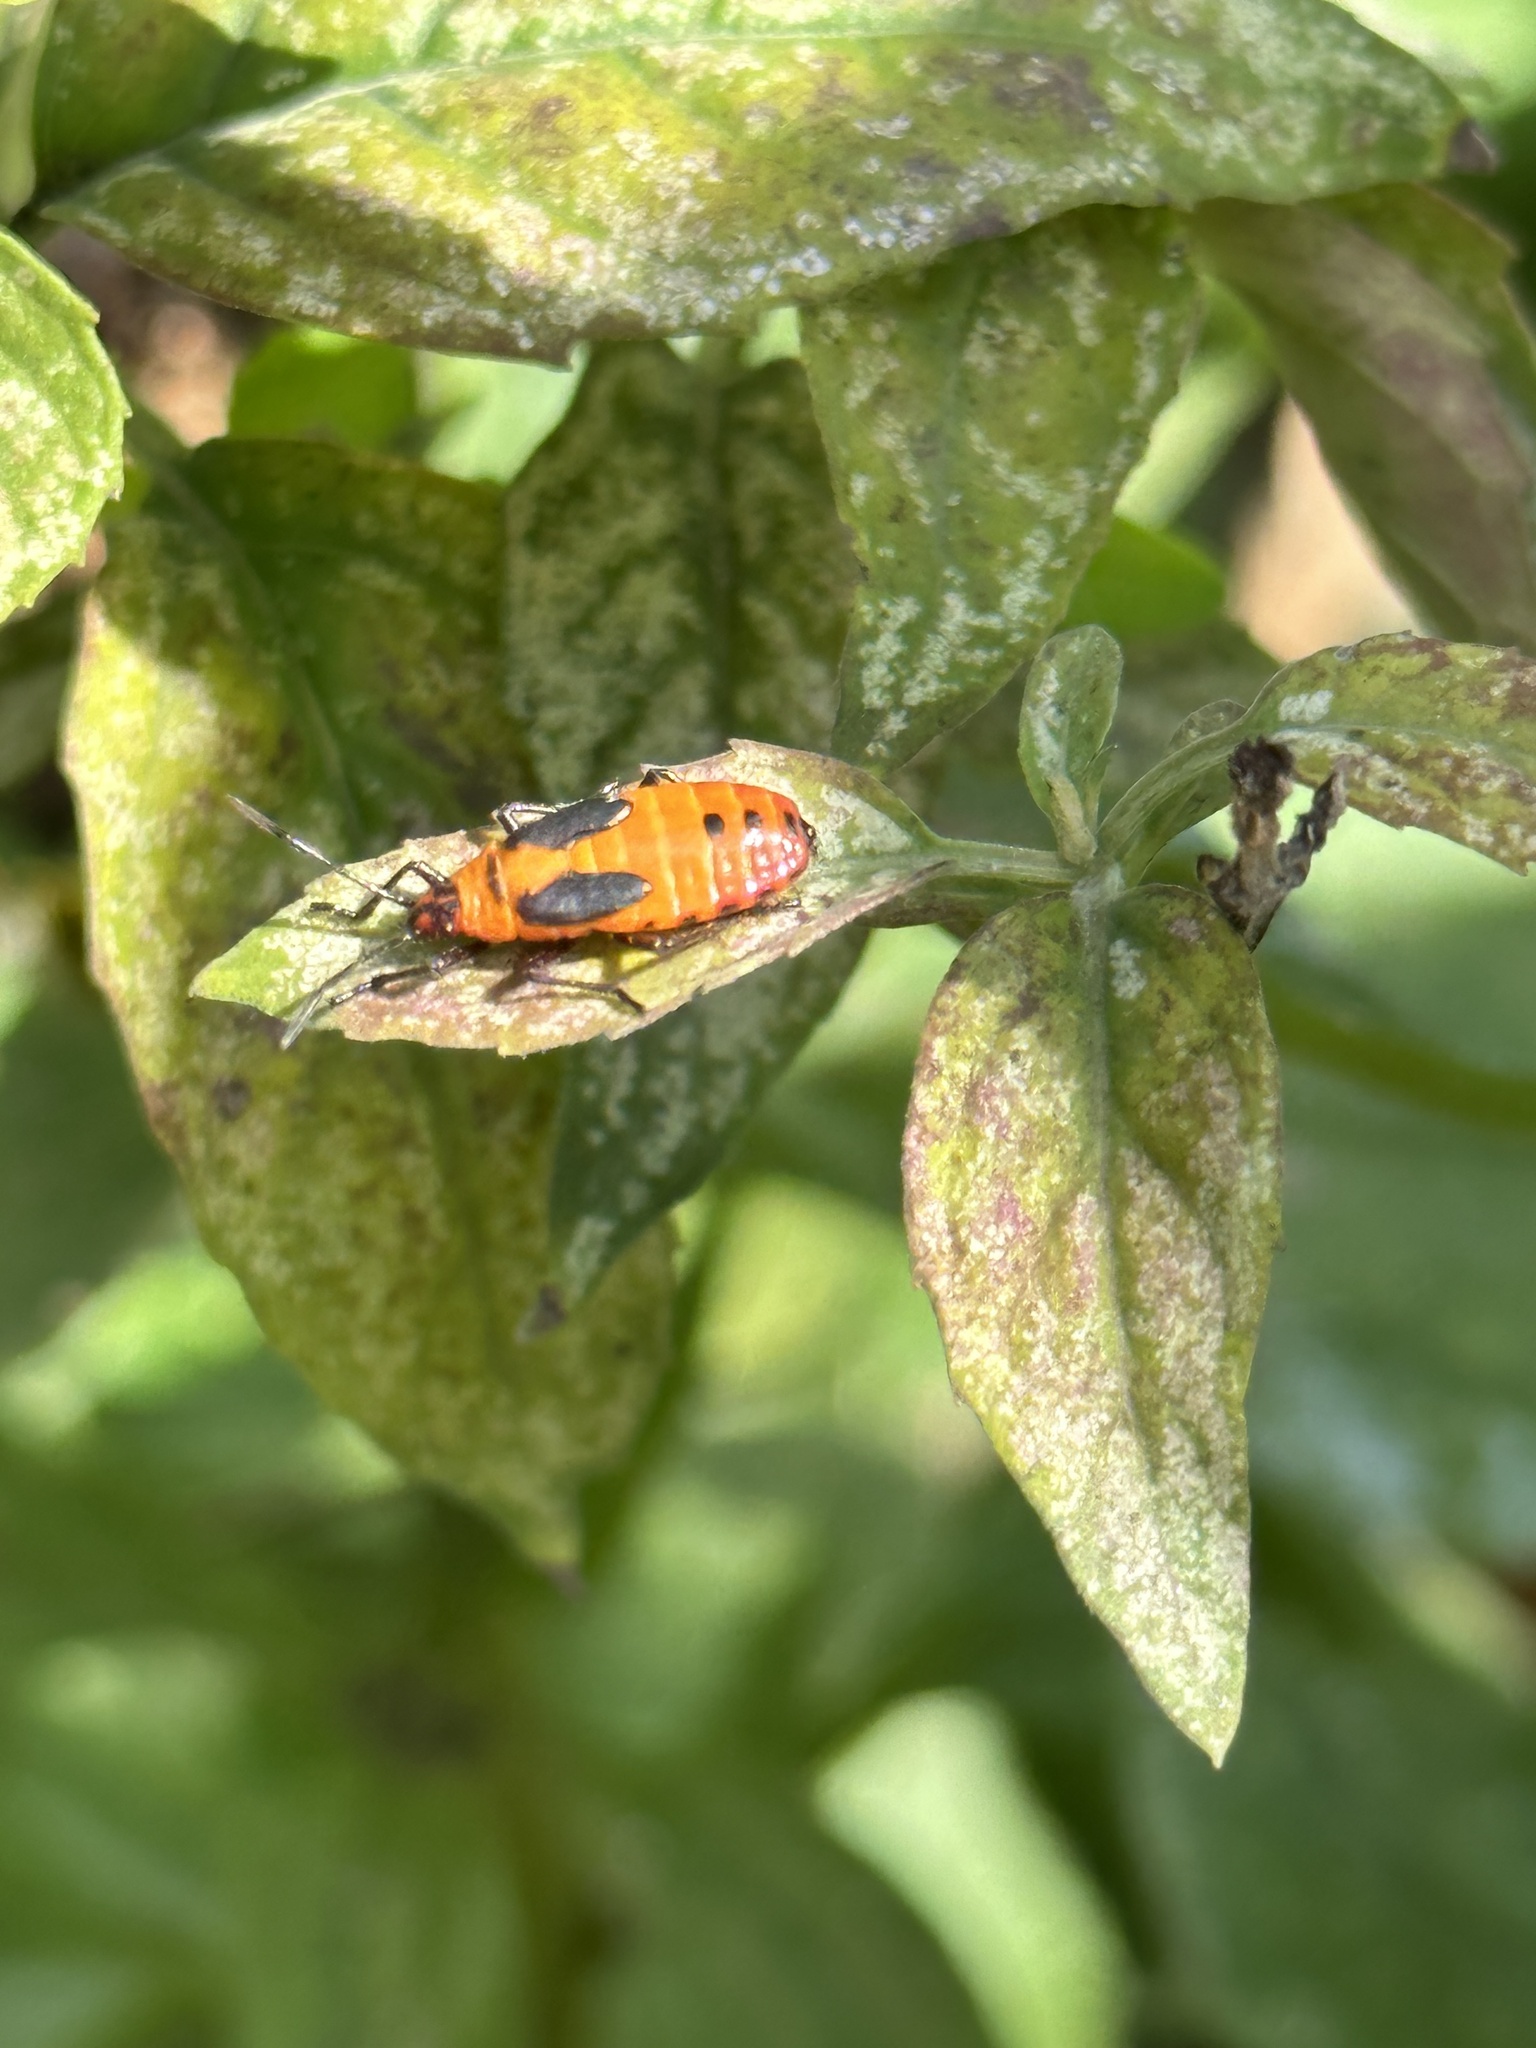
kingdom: Animalia
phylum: Arthropoda
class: Insecta
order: Hemiptera
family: Lygaeidae
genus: Oncopeltus
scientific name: Oncopeltus fasciatus
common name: Large milkweed bug
